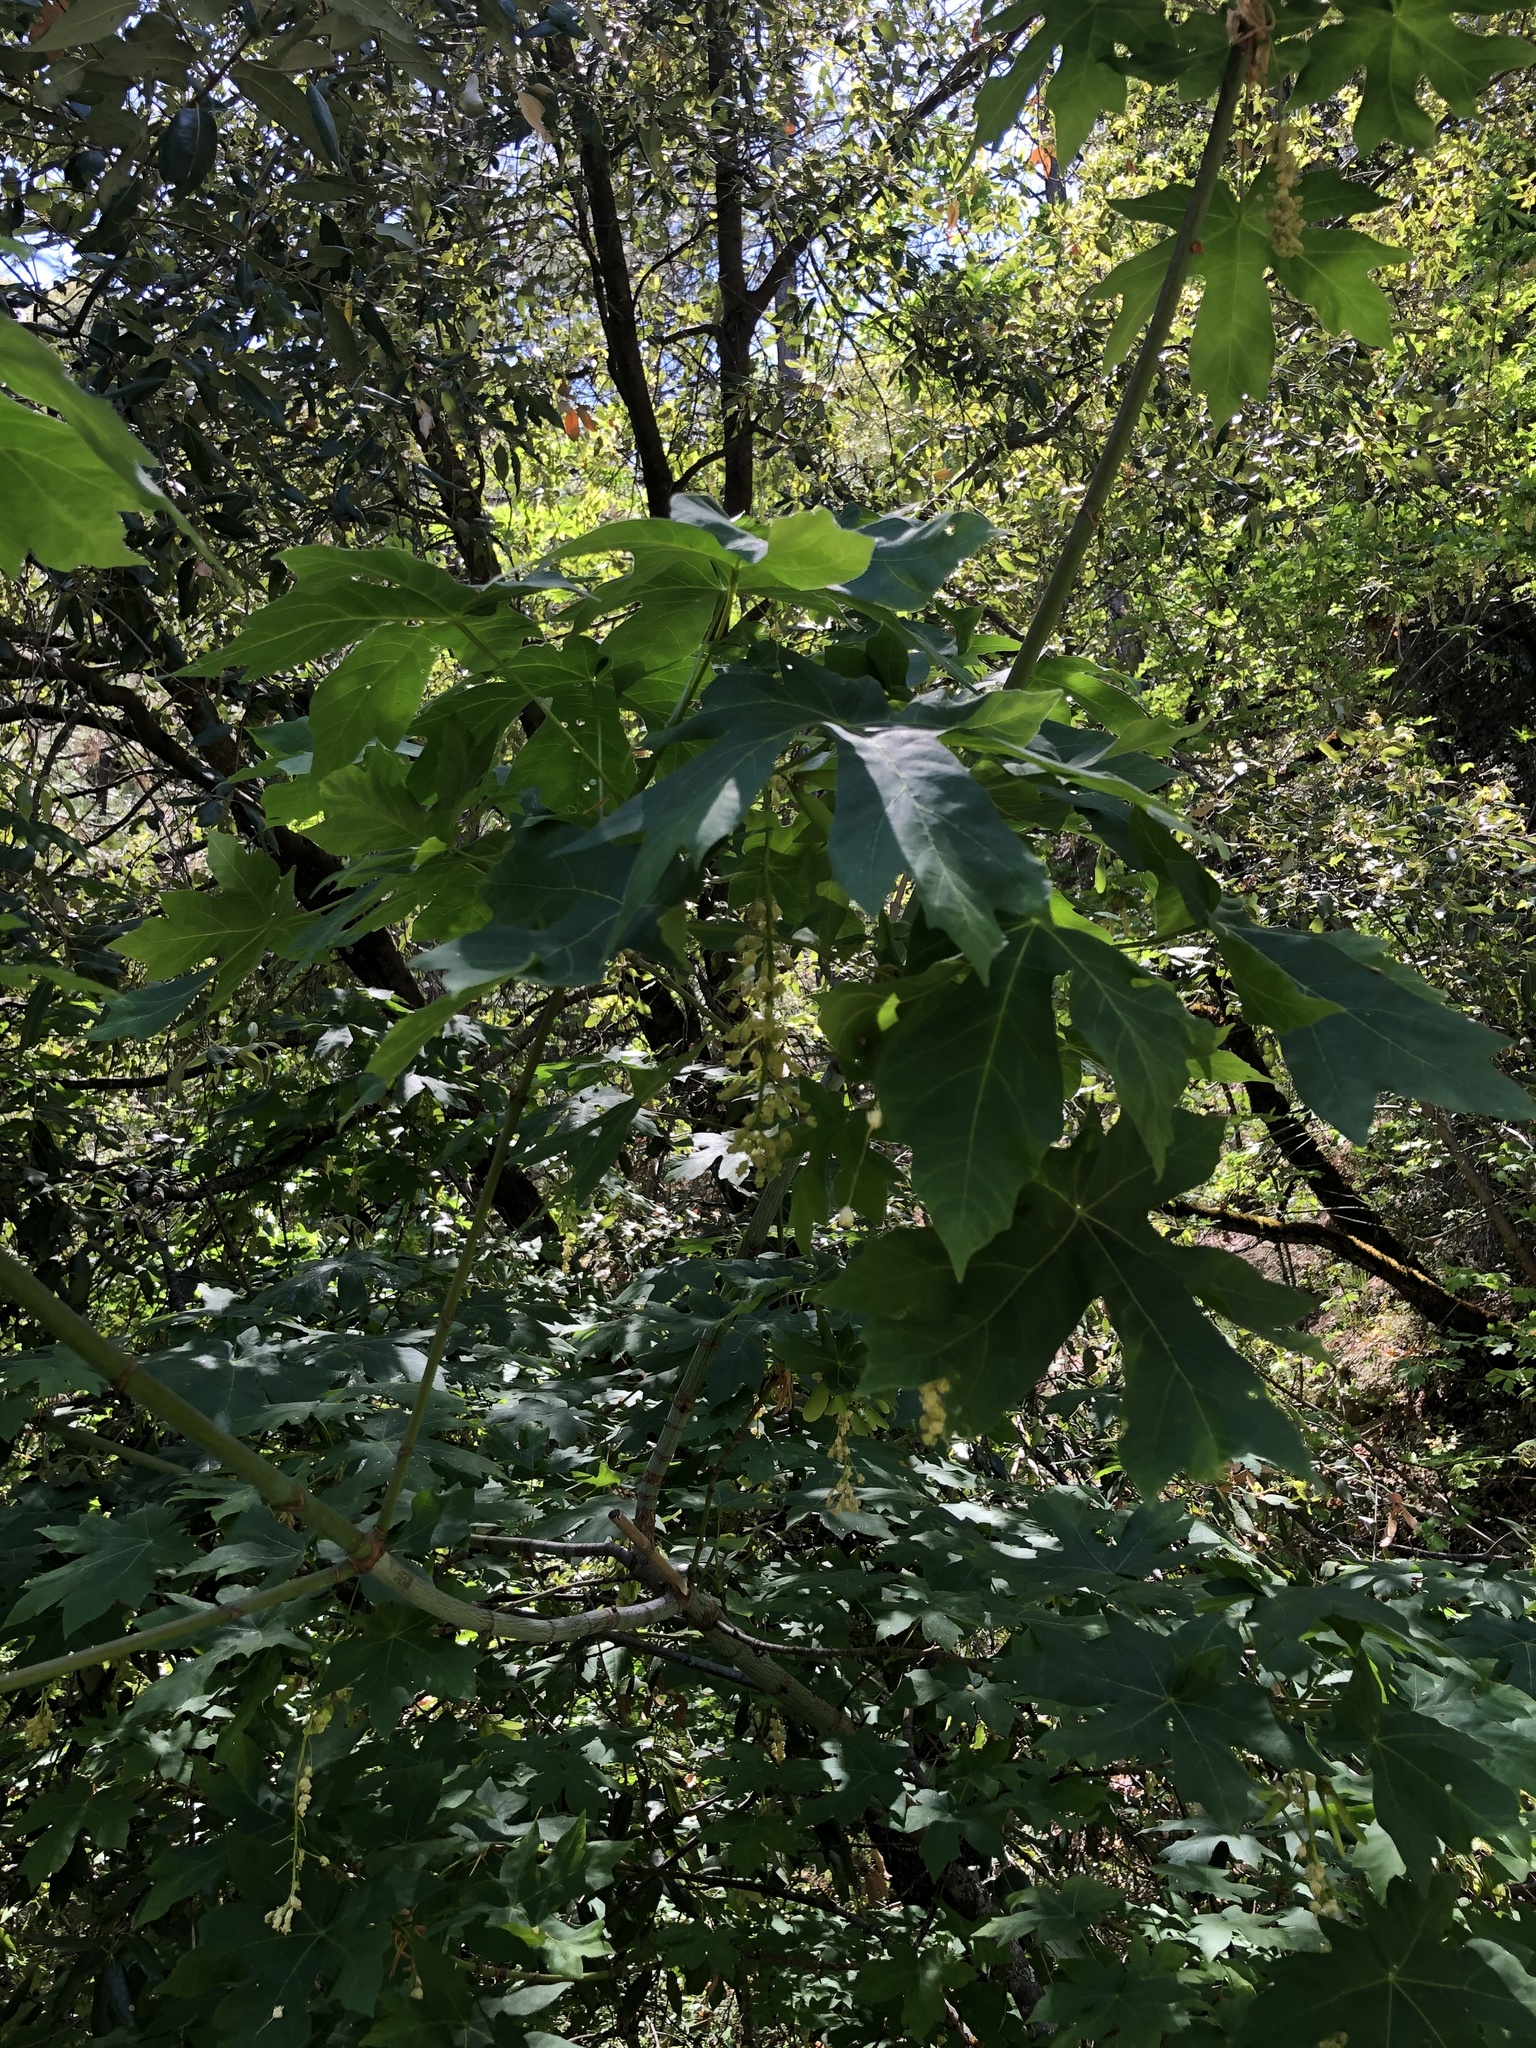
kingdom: Plantae
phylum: Tracheophyta
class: Magnoliopsida
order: Sapindales
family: Sapindaceae
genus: Acer
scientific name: Acer macrophyllum
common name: Oregon maple
